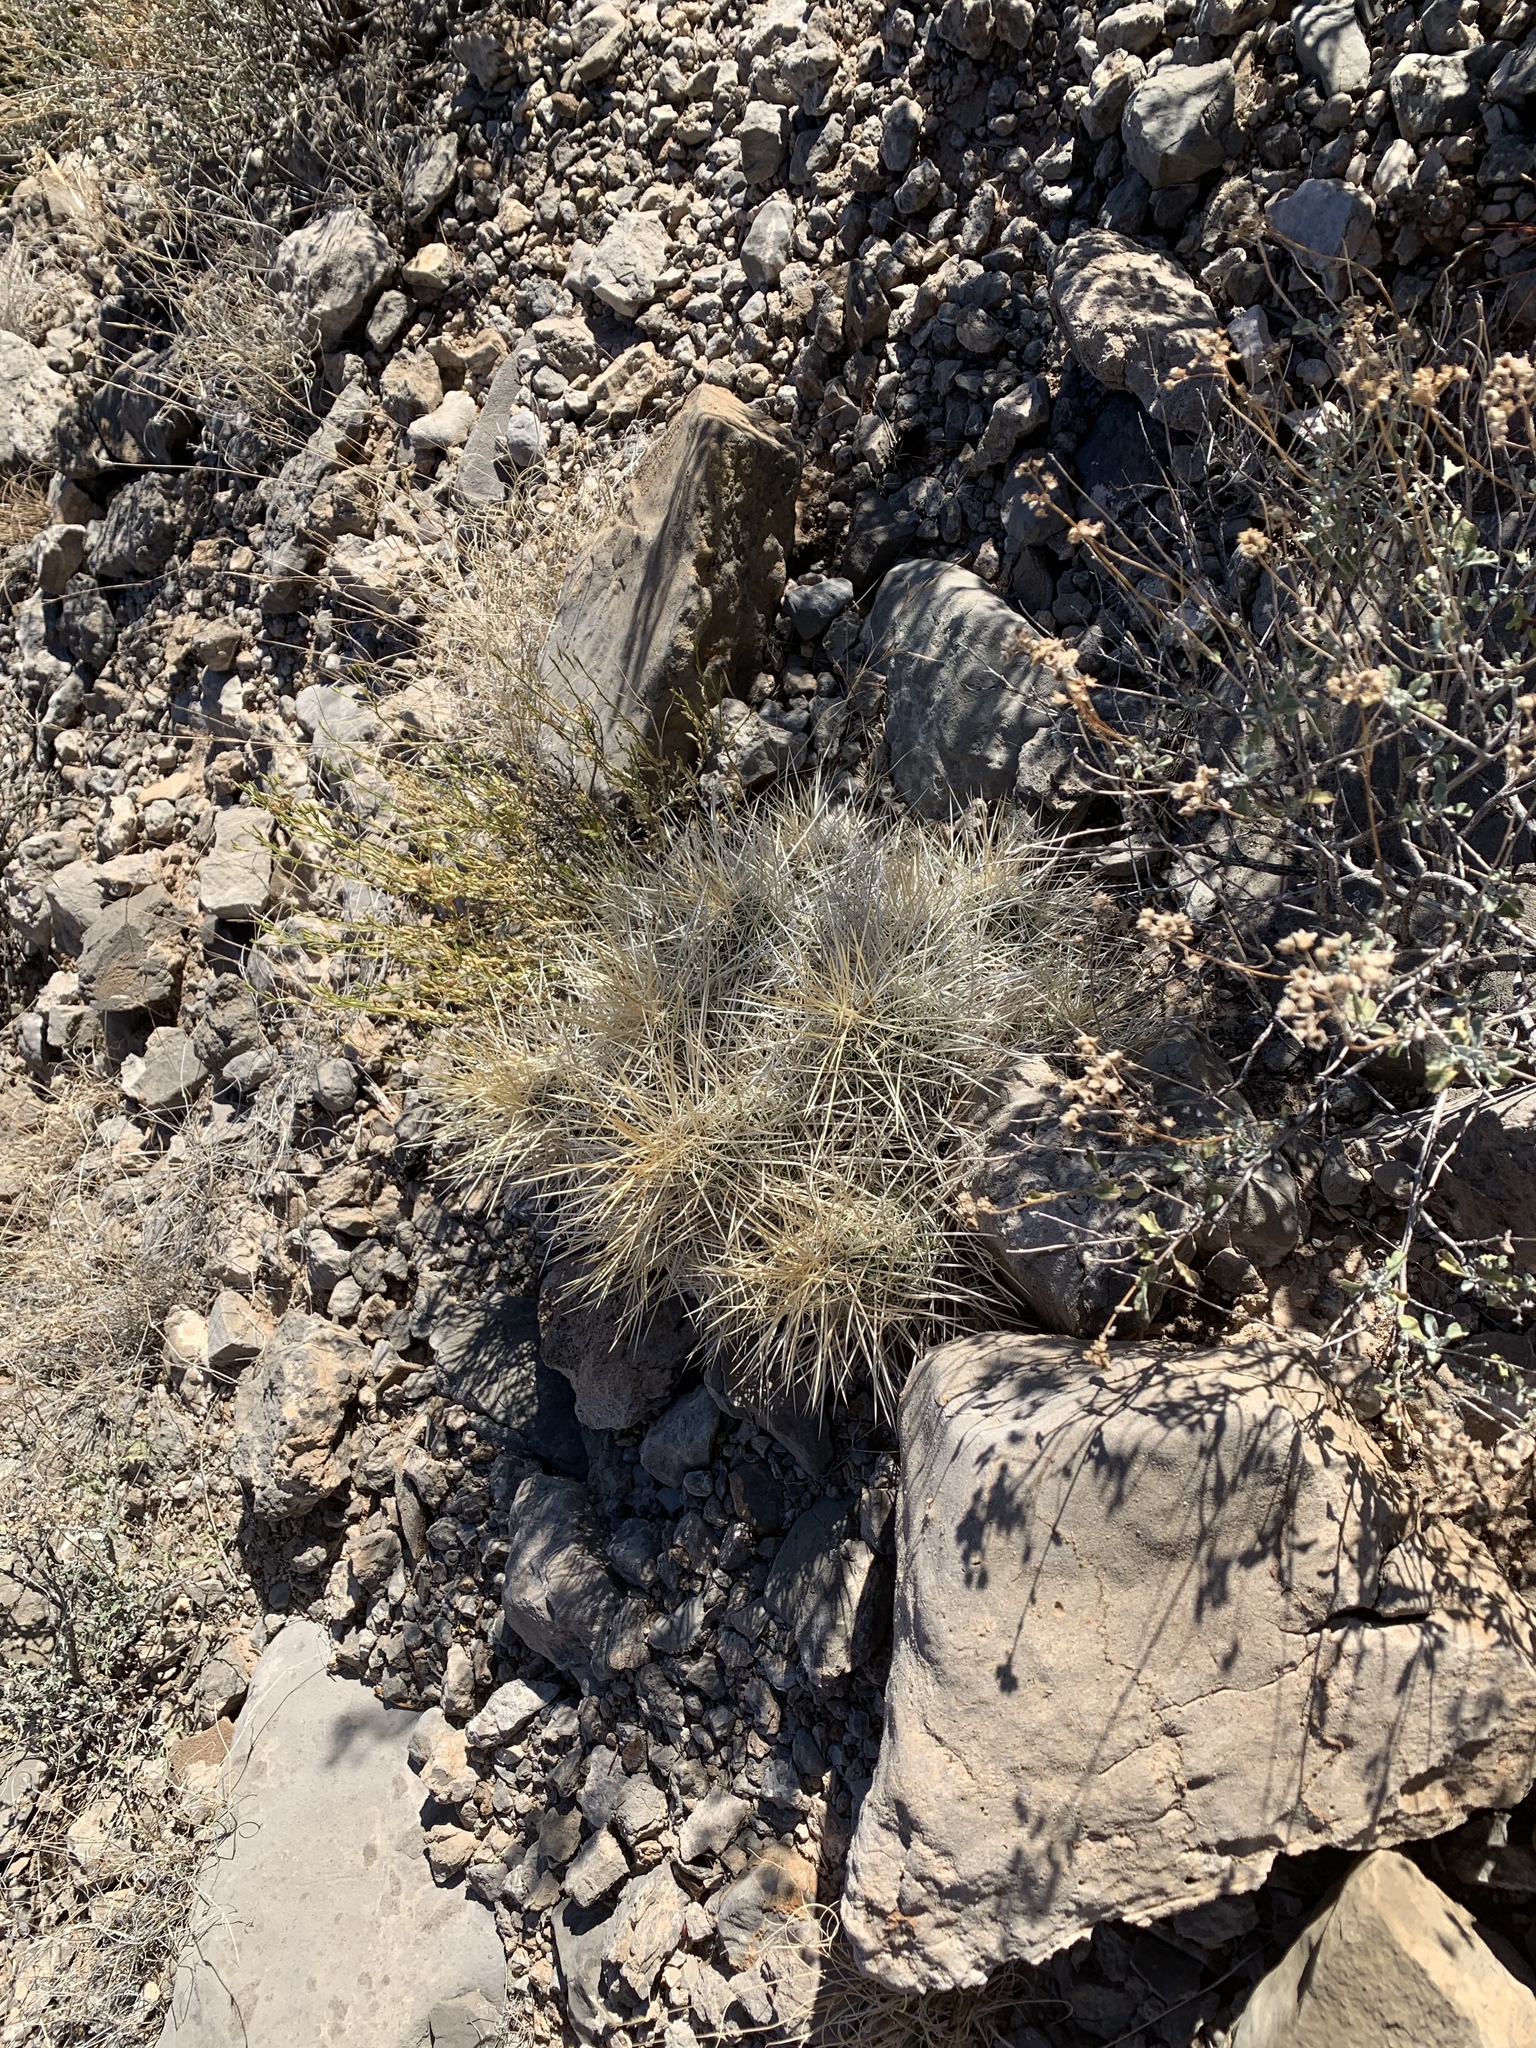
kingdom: Plantae
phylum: Tracheophyta
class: Magnoliopsida
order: Caryophyllales
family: Cactaceae
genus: Echinocereus
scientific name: Echinocereus stramineus
